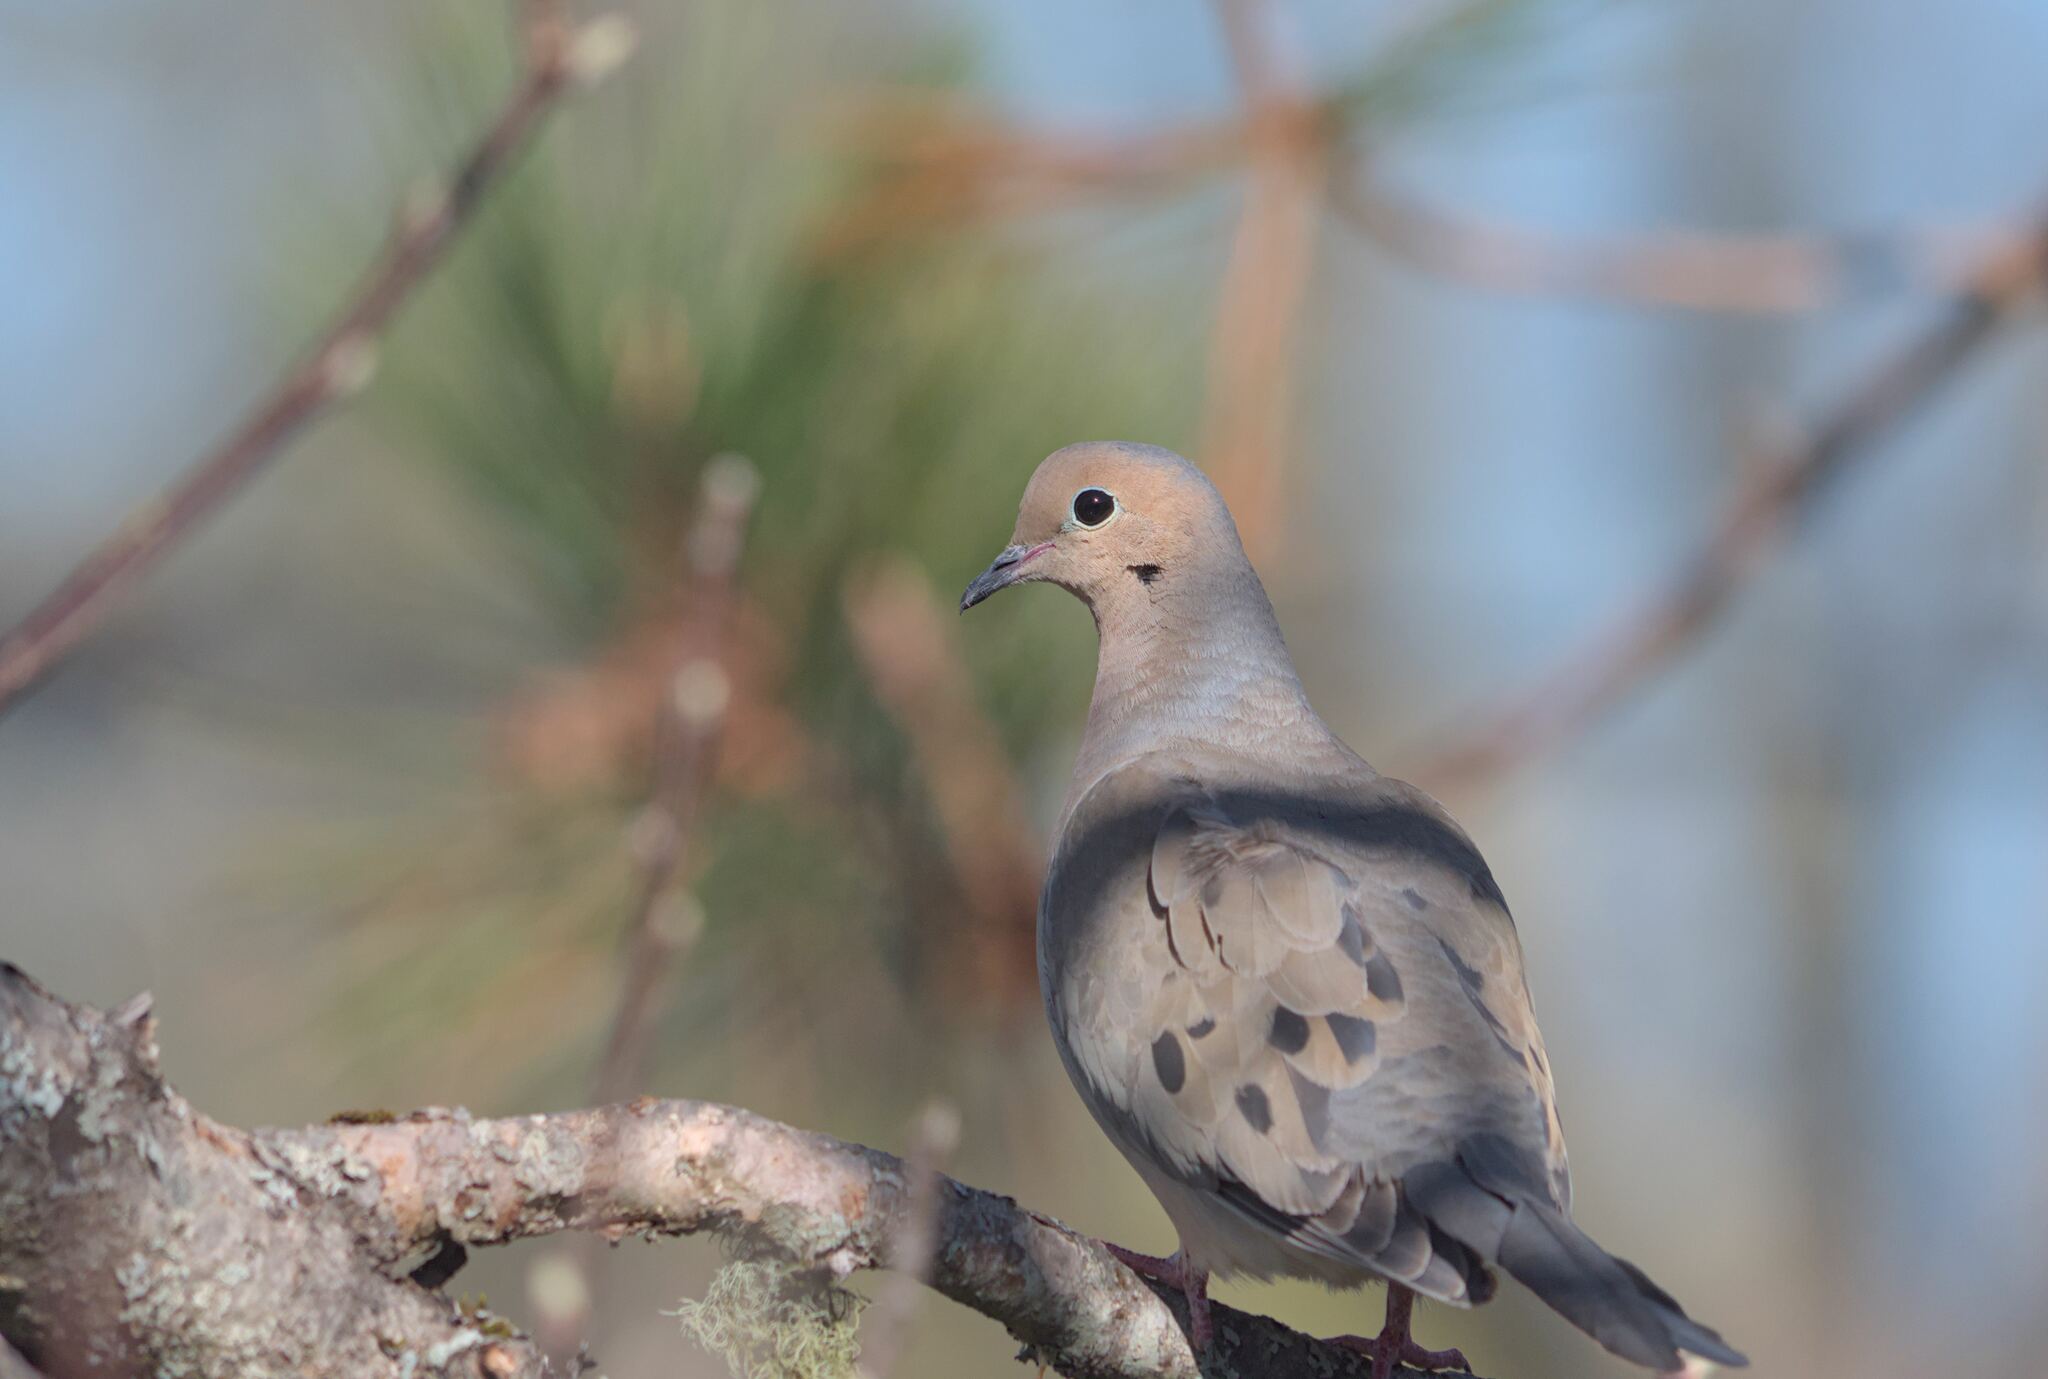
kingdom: Animalia
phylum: Chordata
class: Aves
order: Columbiformes
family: Columbidae
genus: Zenaida
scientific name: Zenaida macroura
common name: Mourning dove
